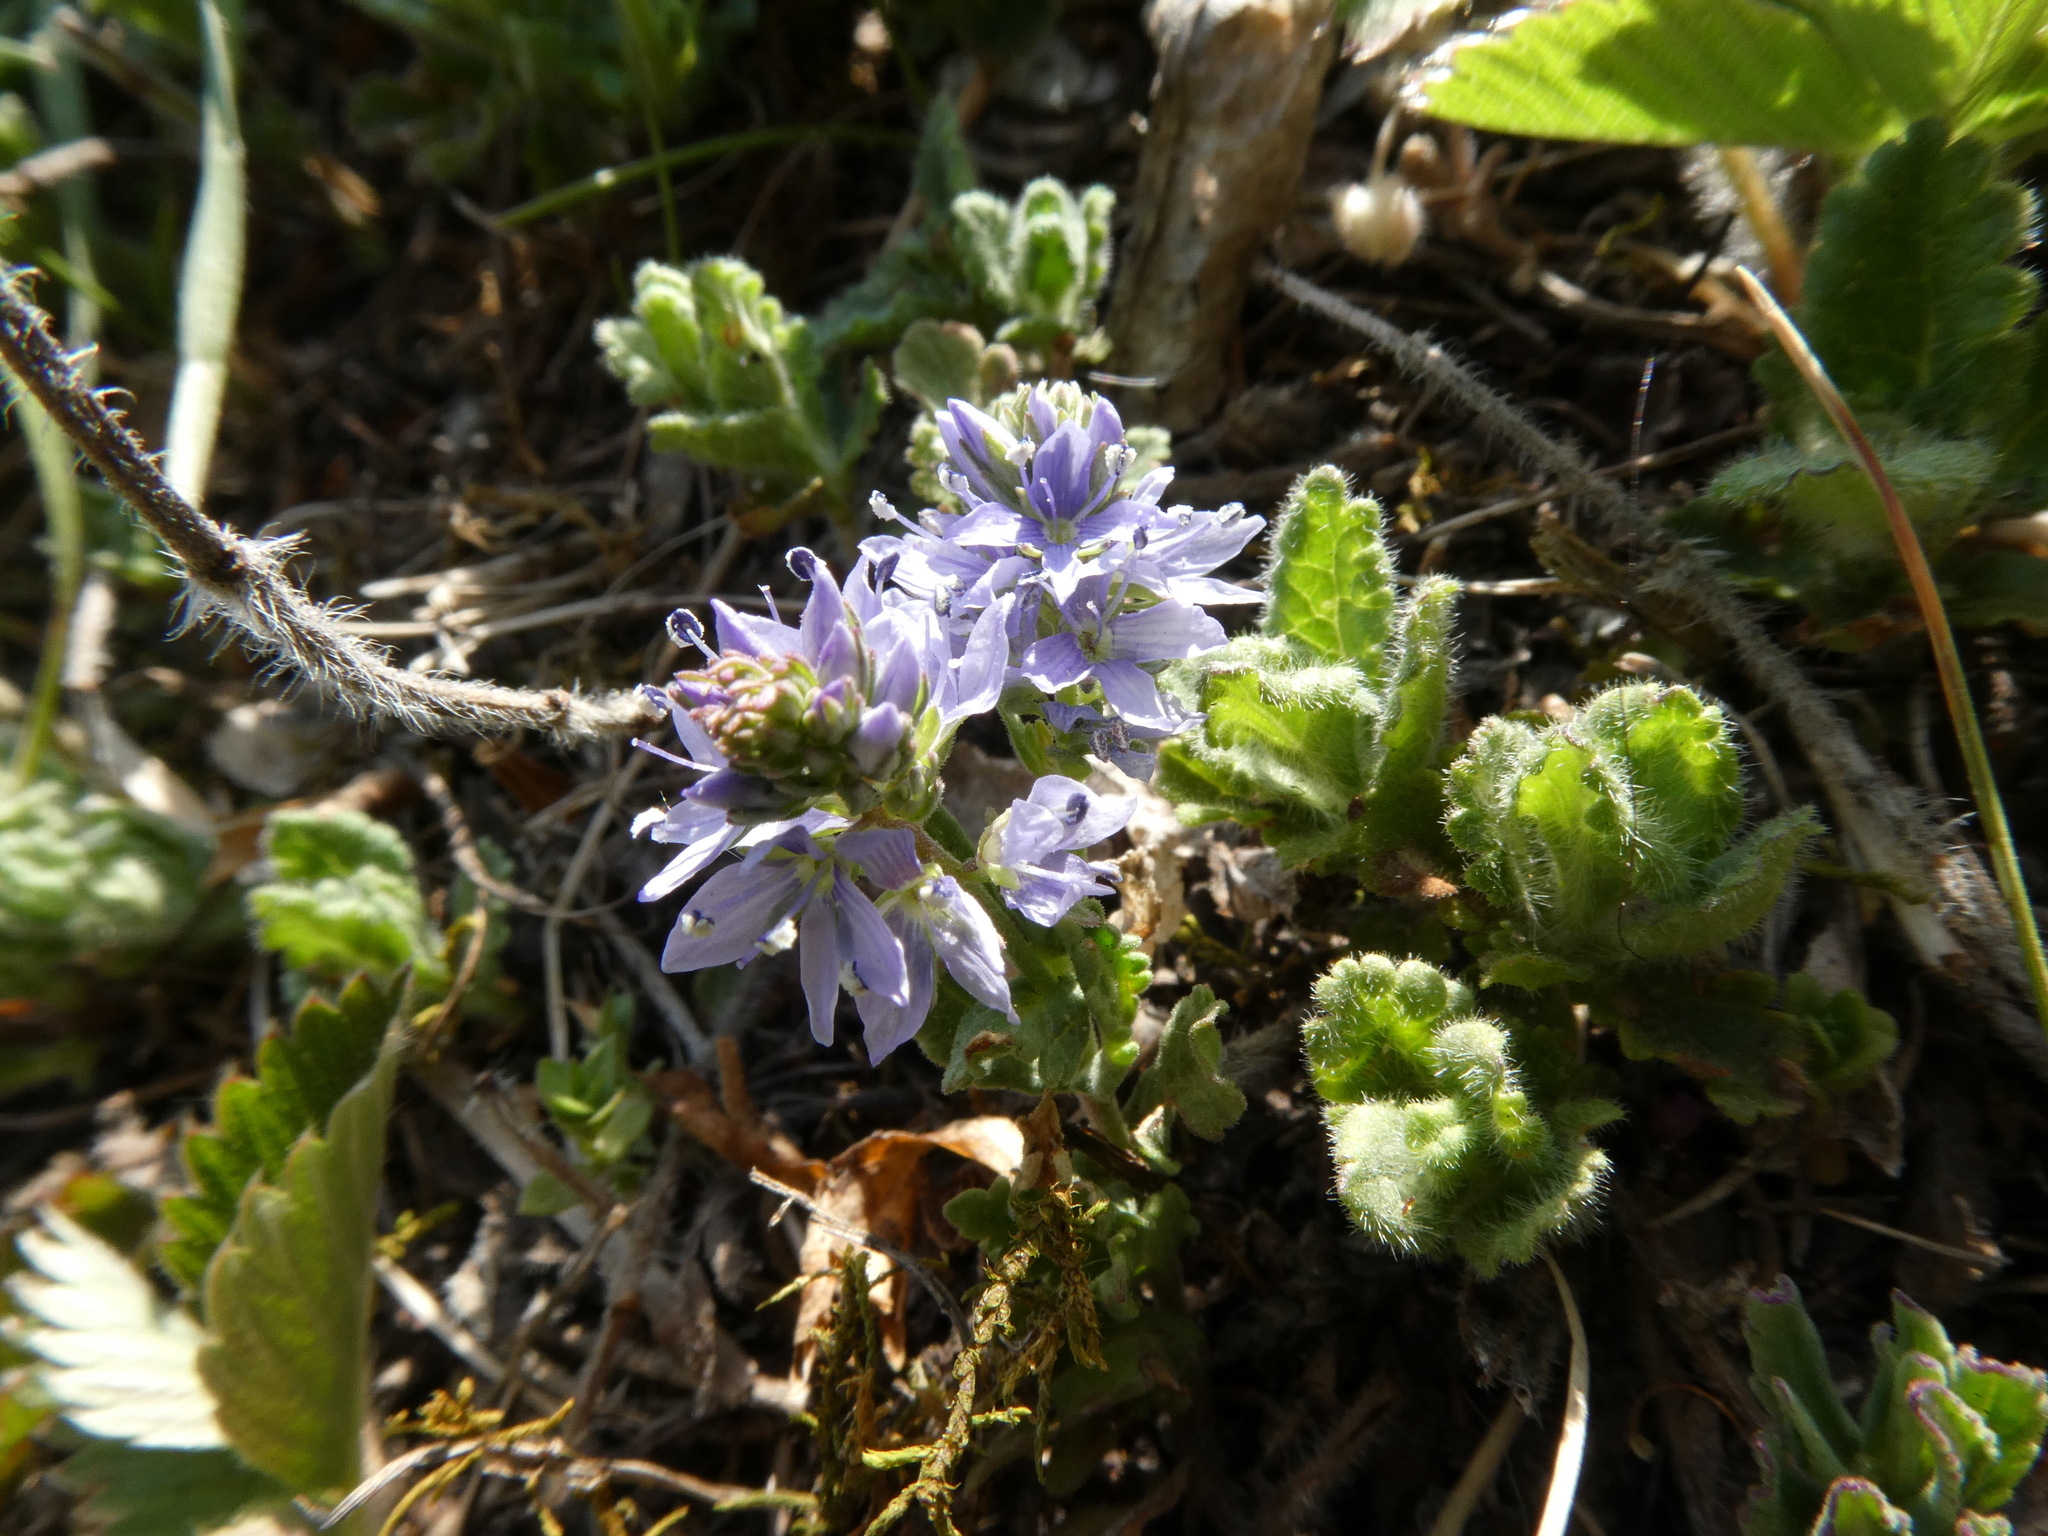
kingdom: Plantae
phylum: Tracheophyta
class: Magnoliopsida
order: Lamiales
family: Plantaginaceae
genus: Veronica
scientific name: Veronica prostrata
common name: Prostrate speedwell
